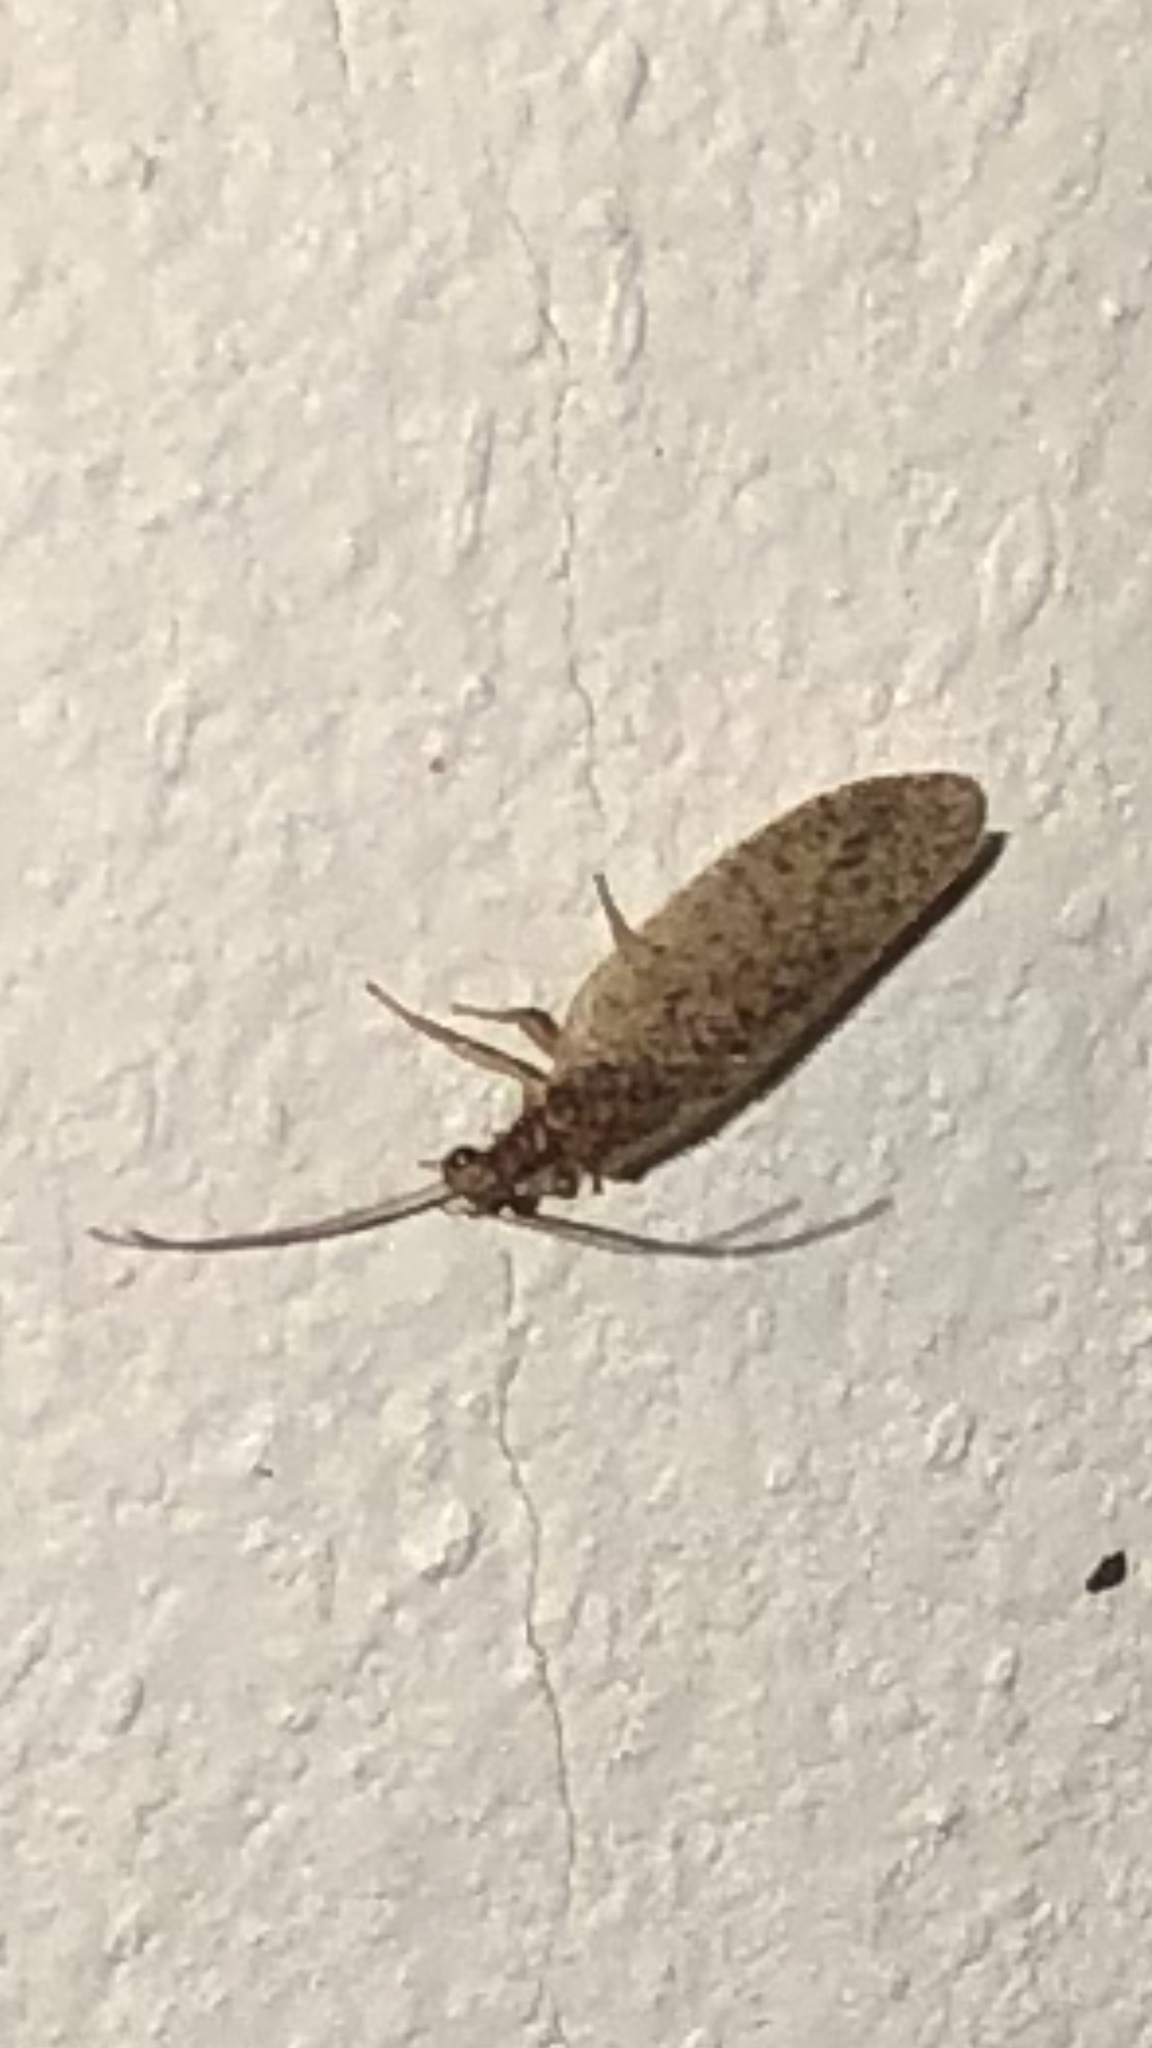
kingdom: Animalia
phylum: Arthropoda
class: Insecta
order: Neuroptera
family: Hemerobiidae
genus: Micromus
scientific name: Micromus subanticus
